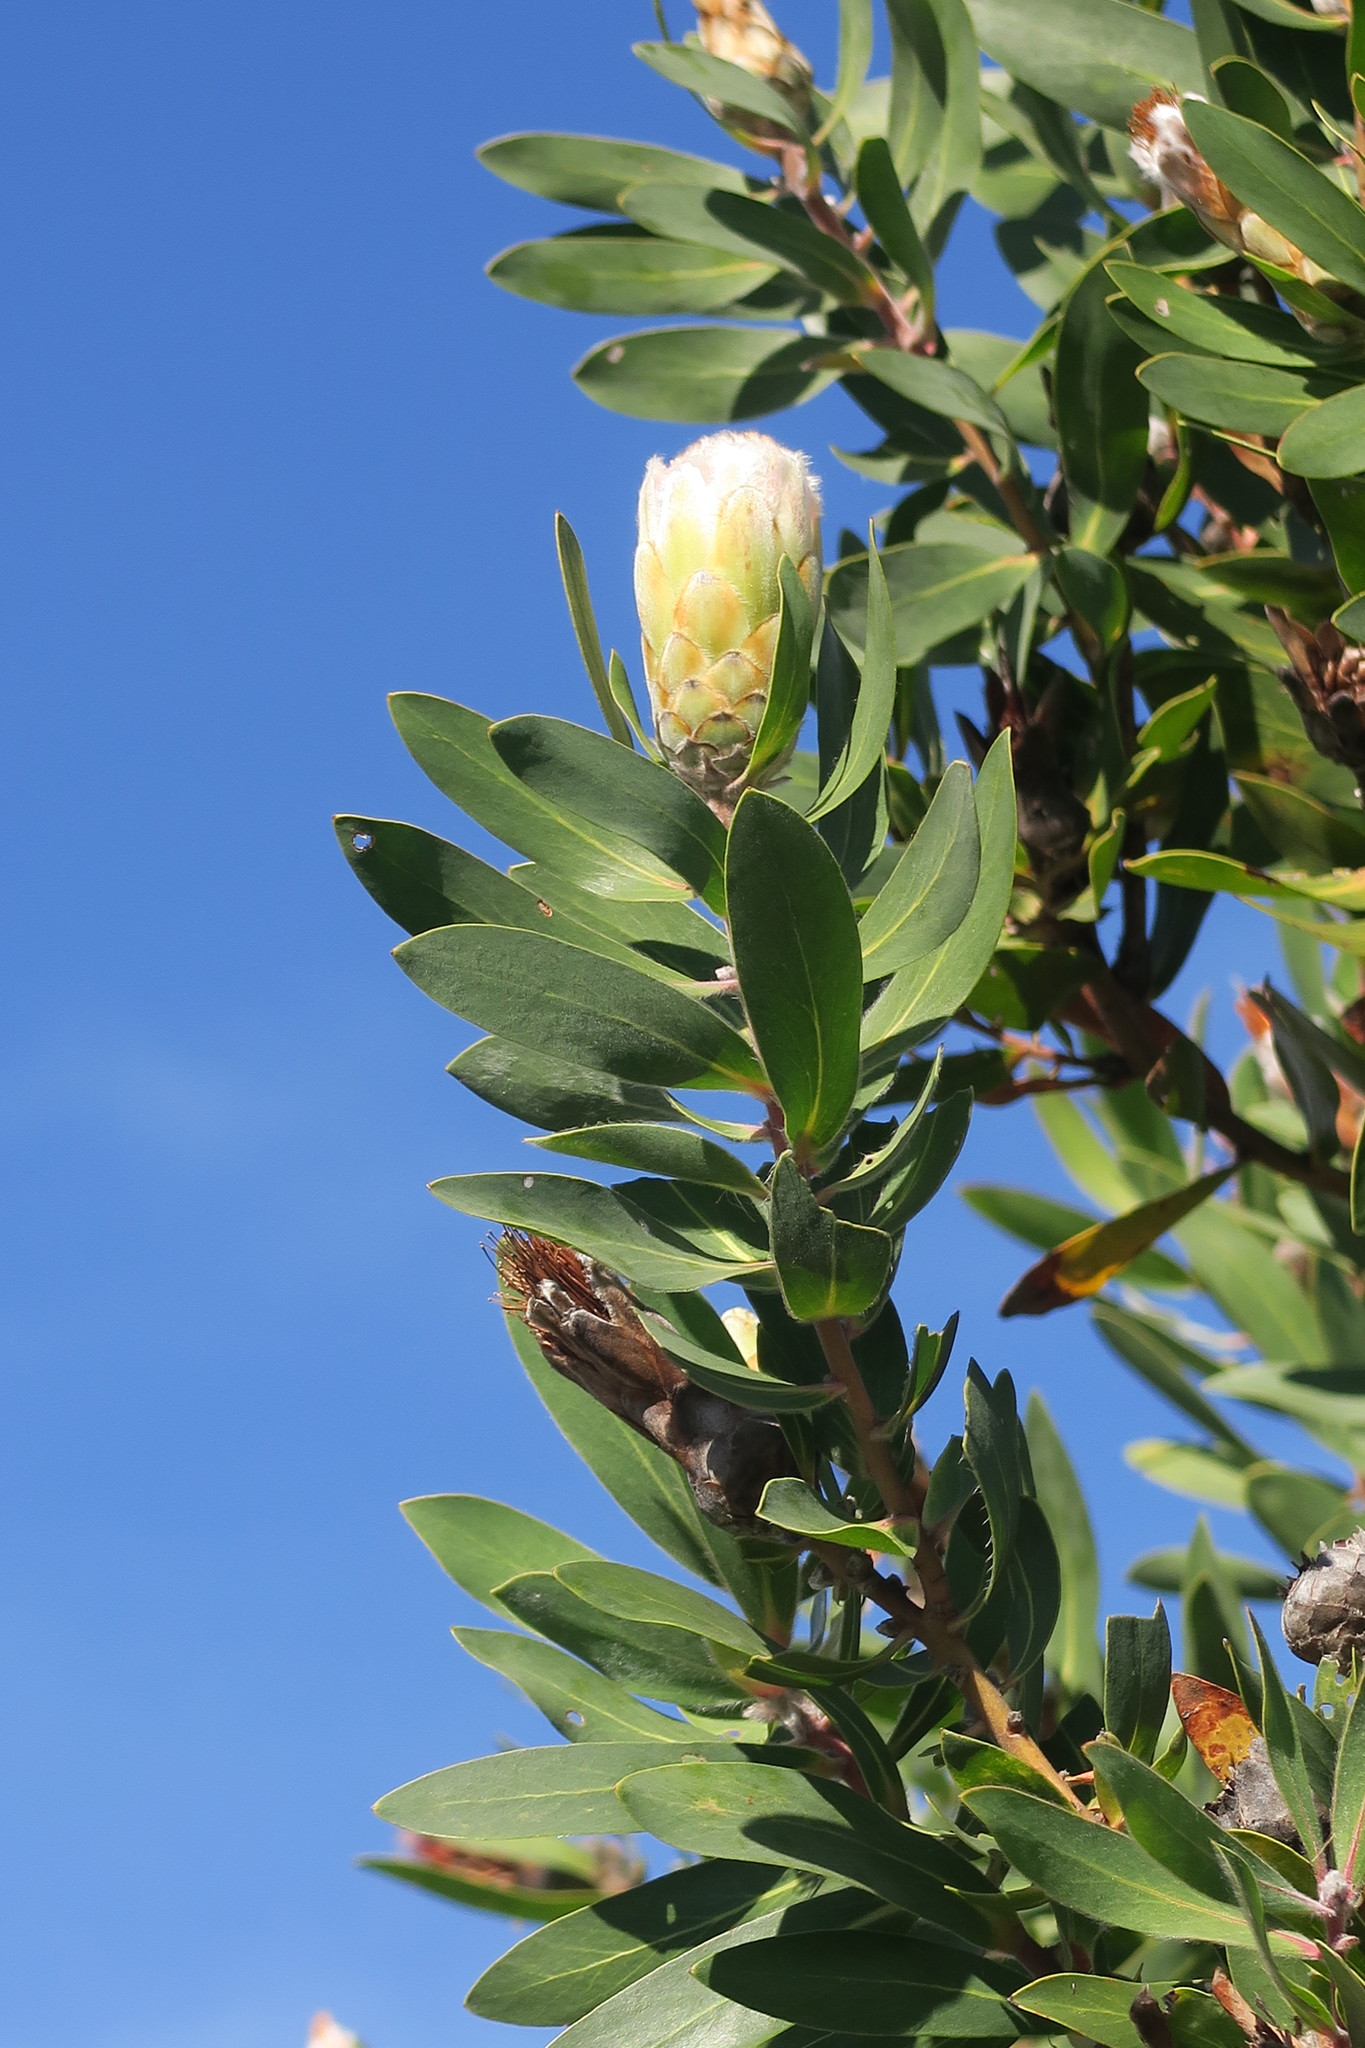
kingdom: Plantae
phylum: Tracheophyta
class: Magnoliopsida
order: Proteales
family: Proteaceae
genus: Protea
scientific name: Protea mundii
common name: Forest sugarbush
